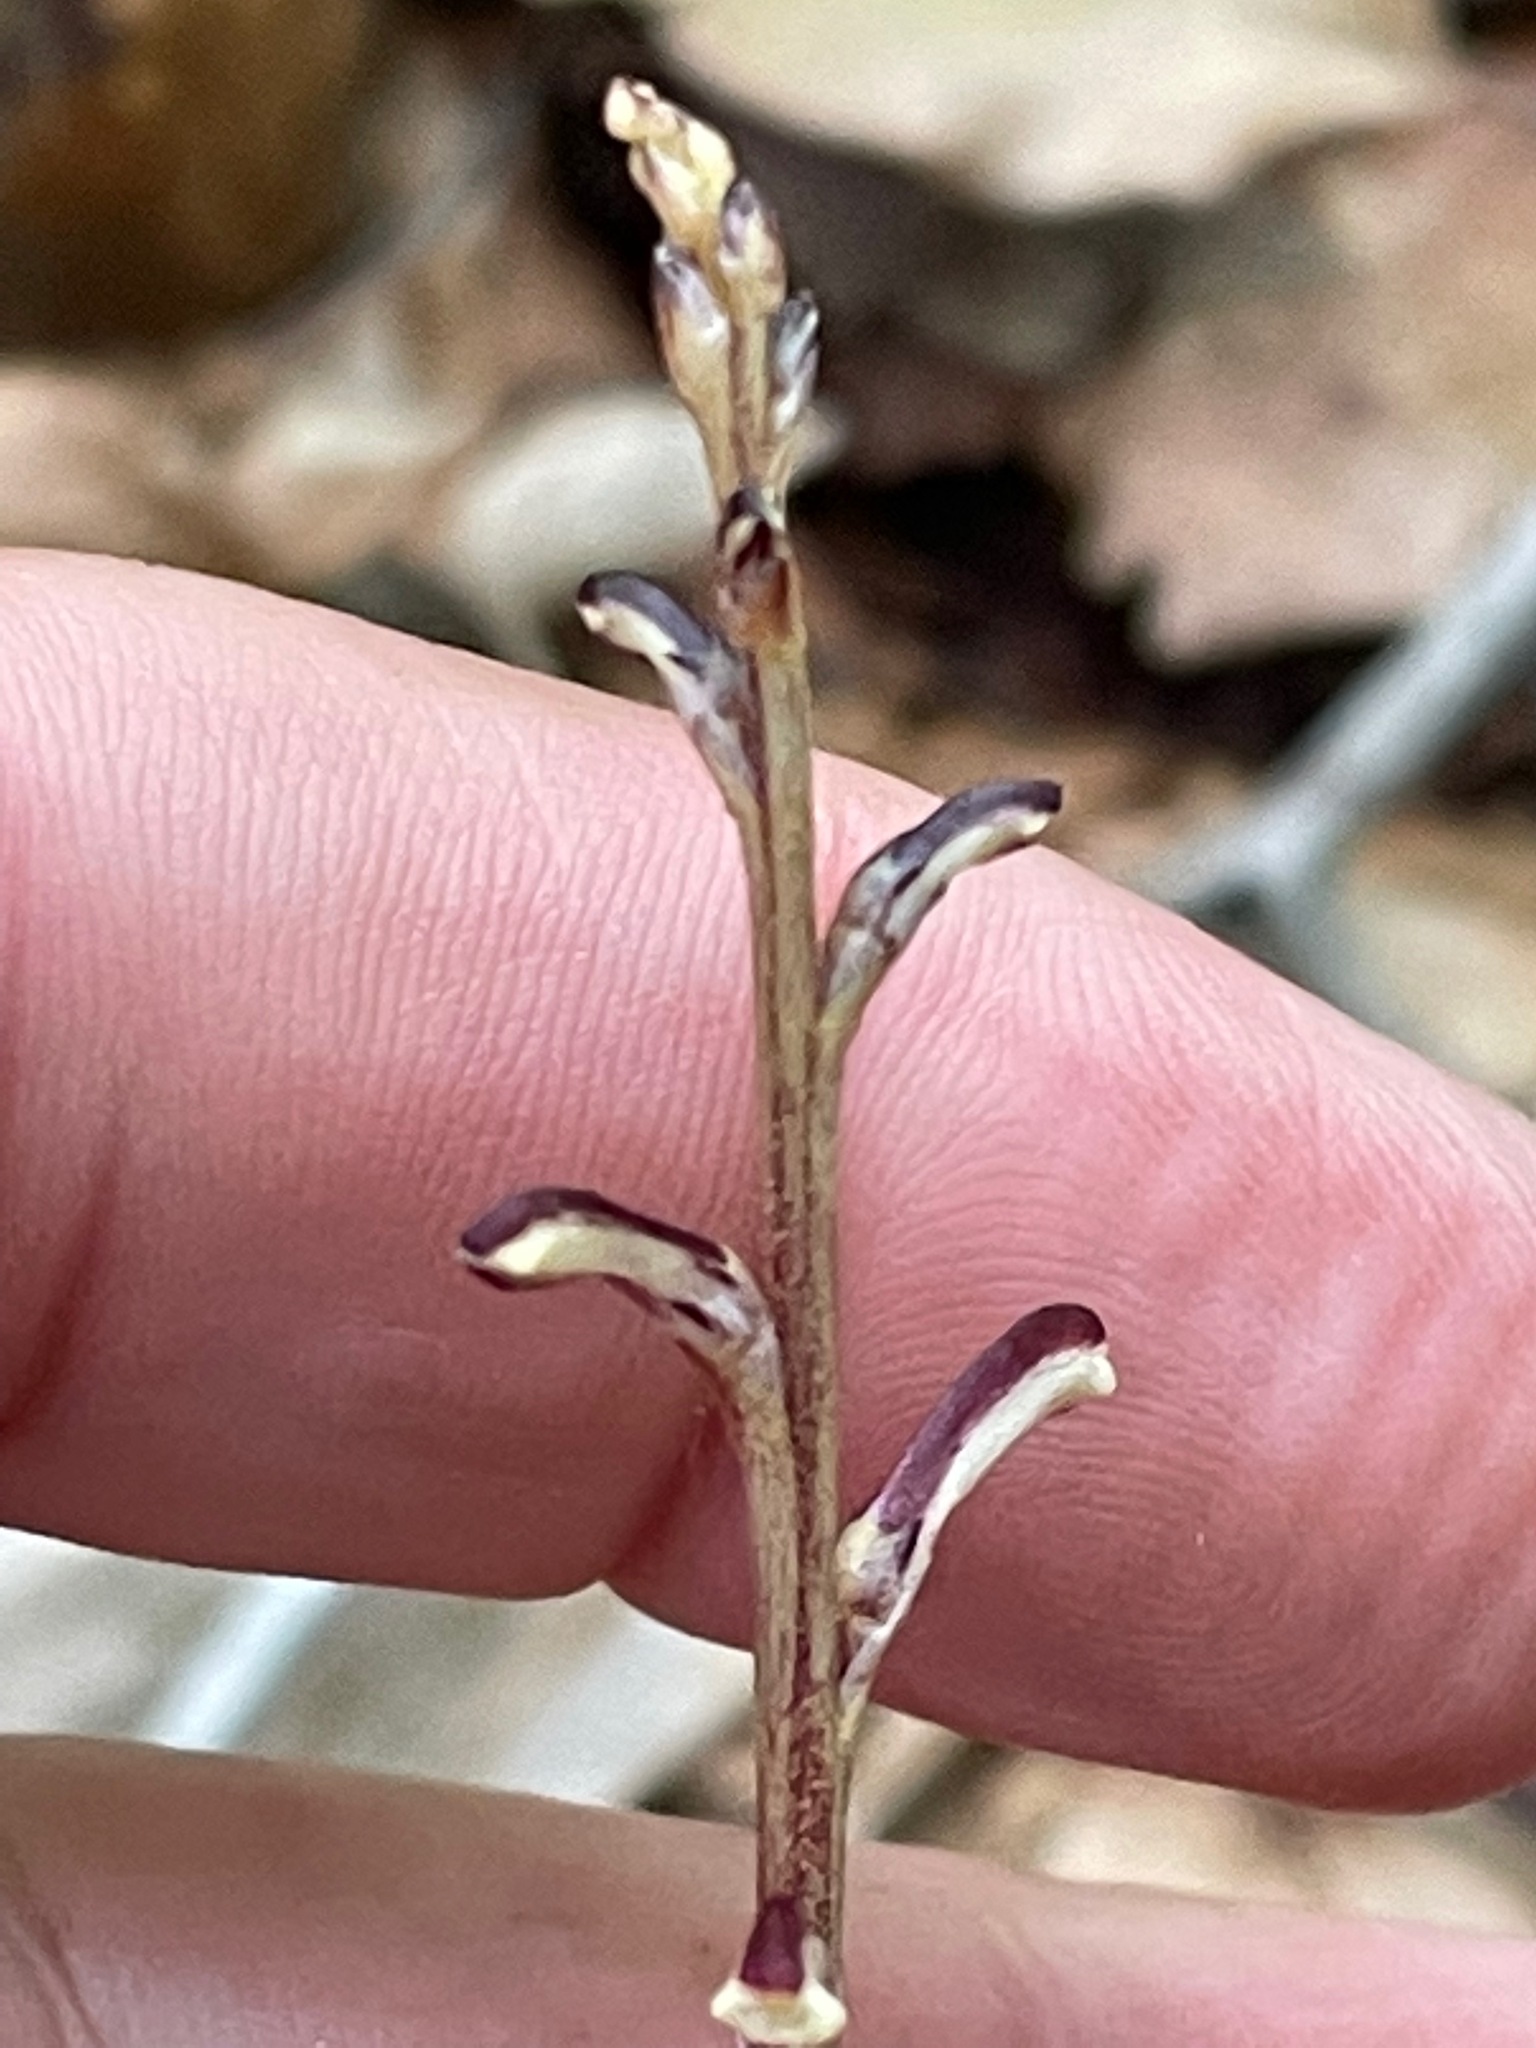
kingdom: Plantae
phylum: Tracheophyta
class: Magnoliopsida
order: Lamiales
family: Orobanchaceae
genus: Epifagus
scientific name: Epifagus virginiana
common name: Beechdrops
